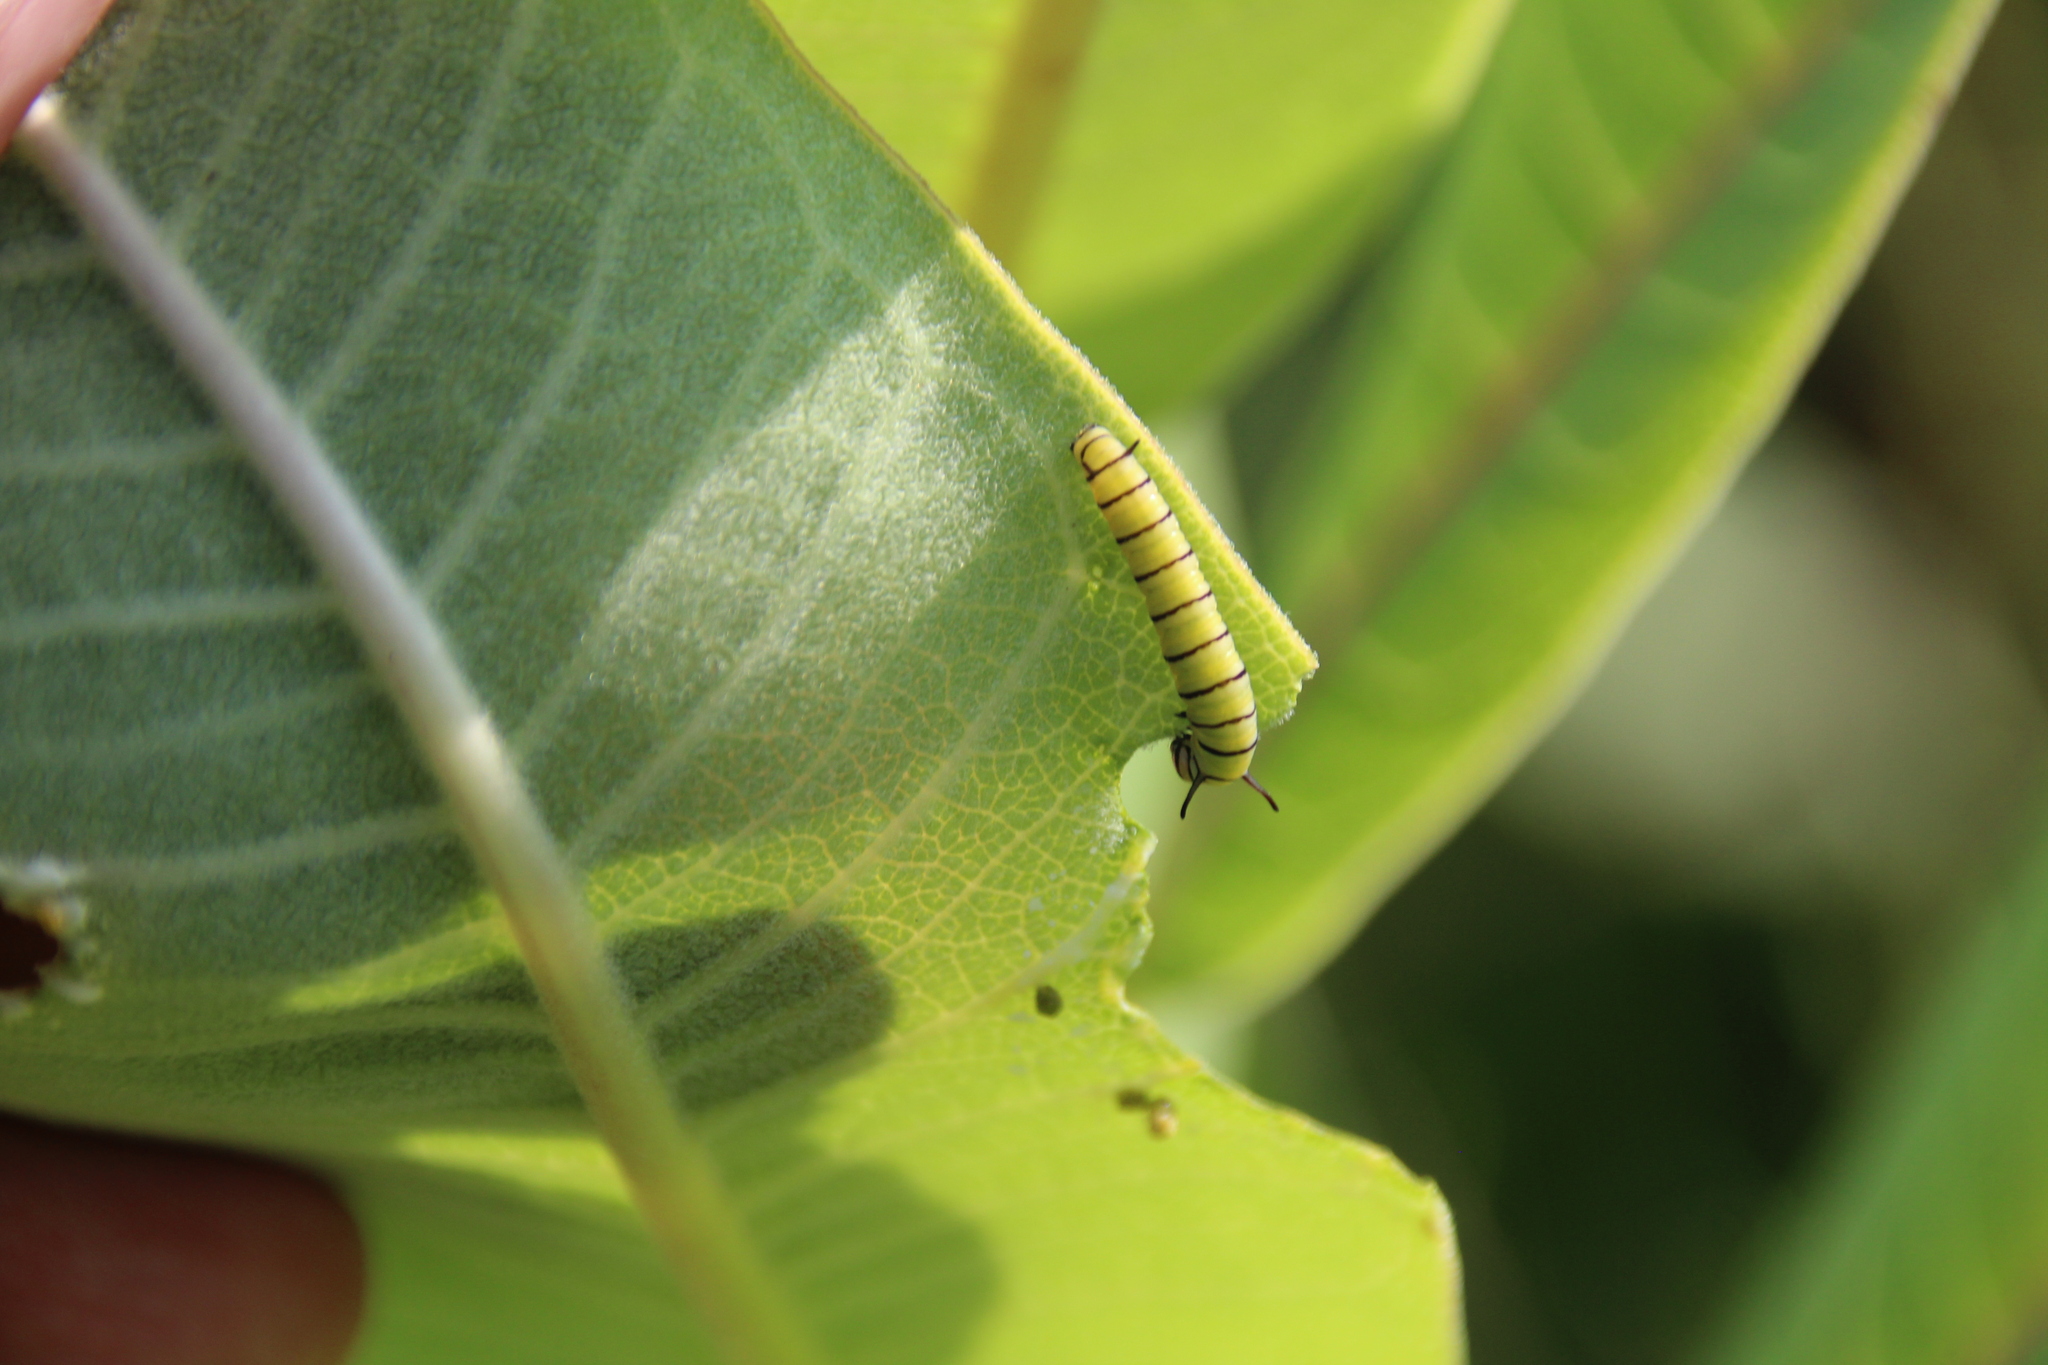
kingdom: Animalia
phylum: Arthropoda
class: Insecta
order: Lepidoptera
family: Nymphalidae
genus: Danaus
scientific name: Danaus plexippus
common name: Monarch
